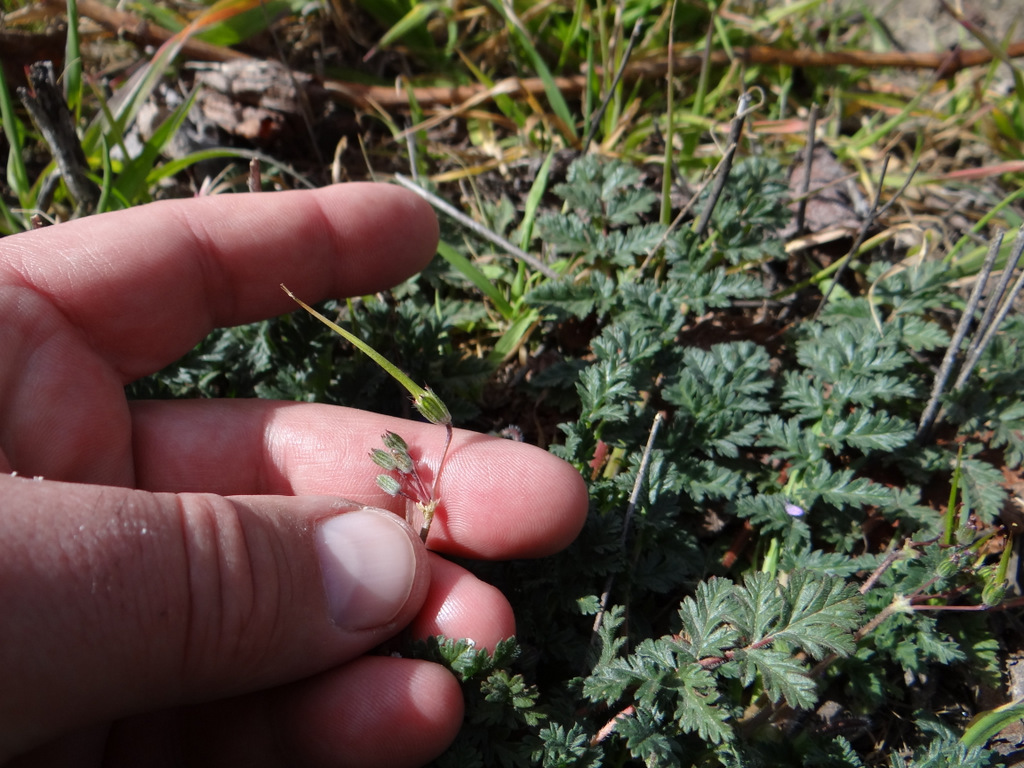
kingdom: Plantae
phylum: Tracheophyta
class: Magnoliopsida
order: Geraniales
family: Geraniaceae
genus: Erodium
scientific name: Erodium cicutarium
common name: Common stork's-bill
